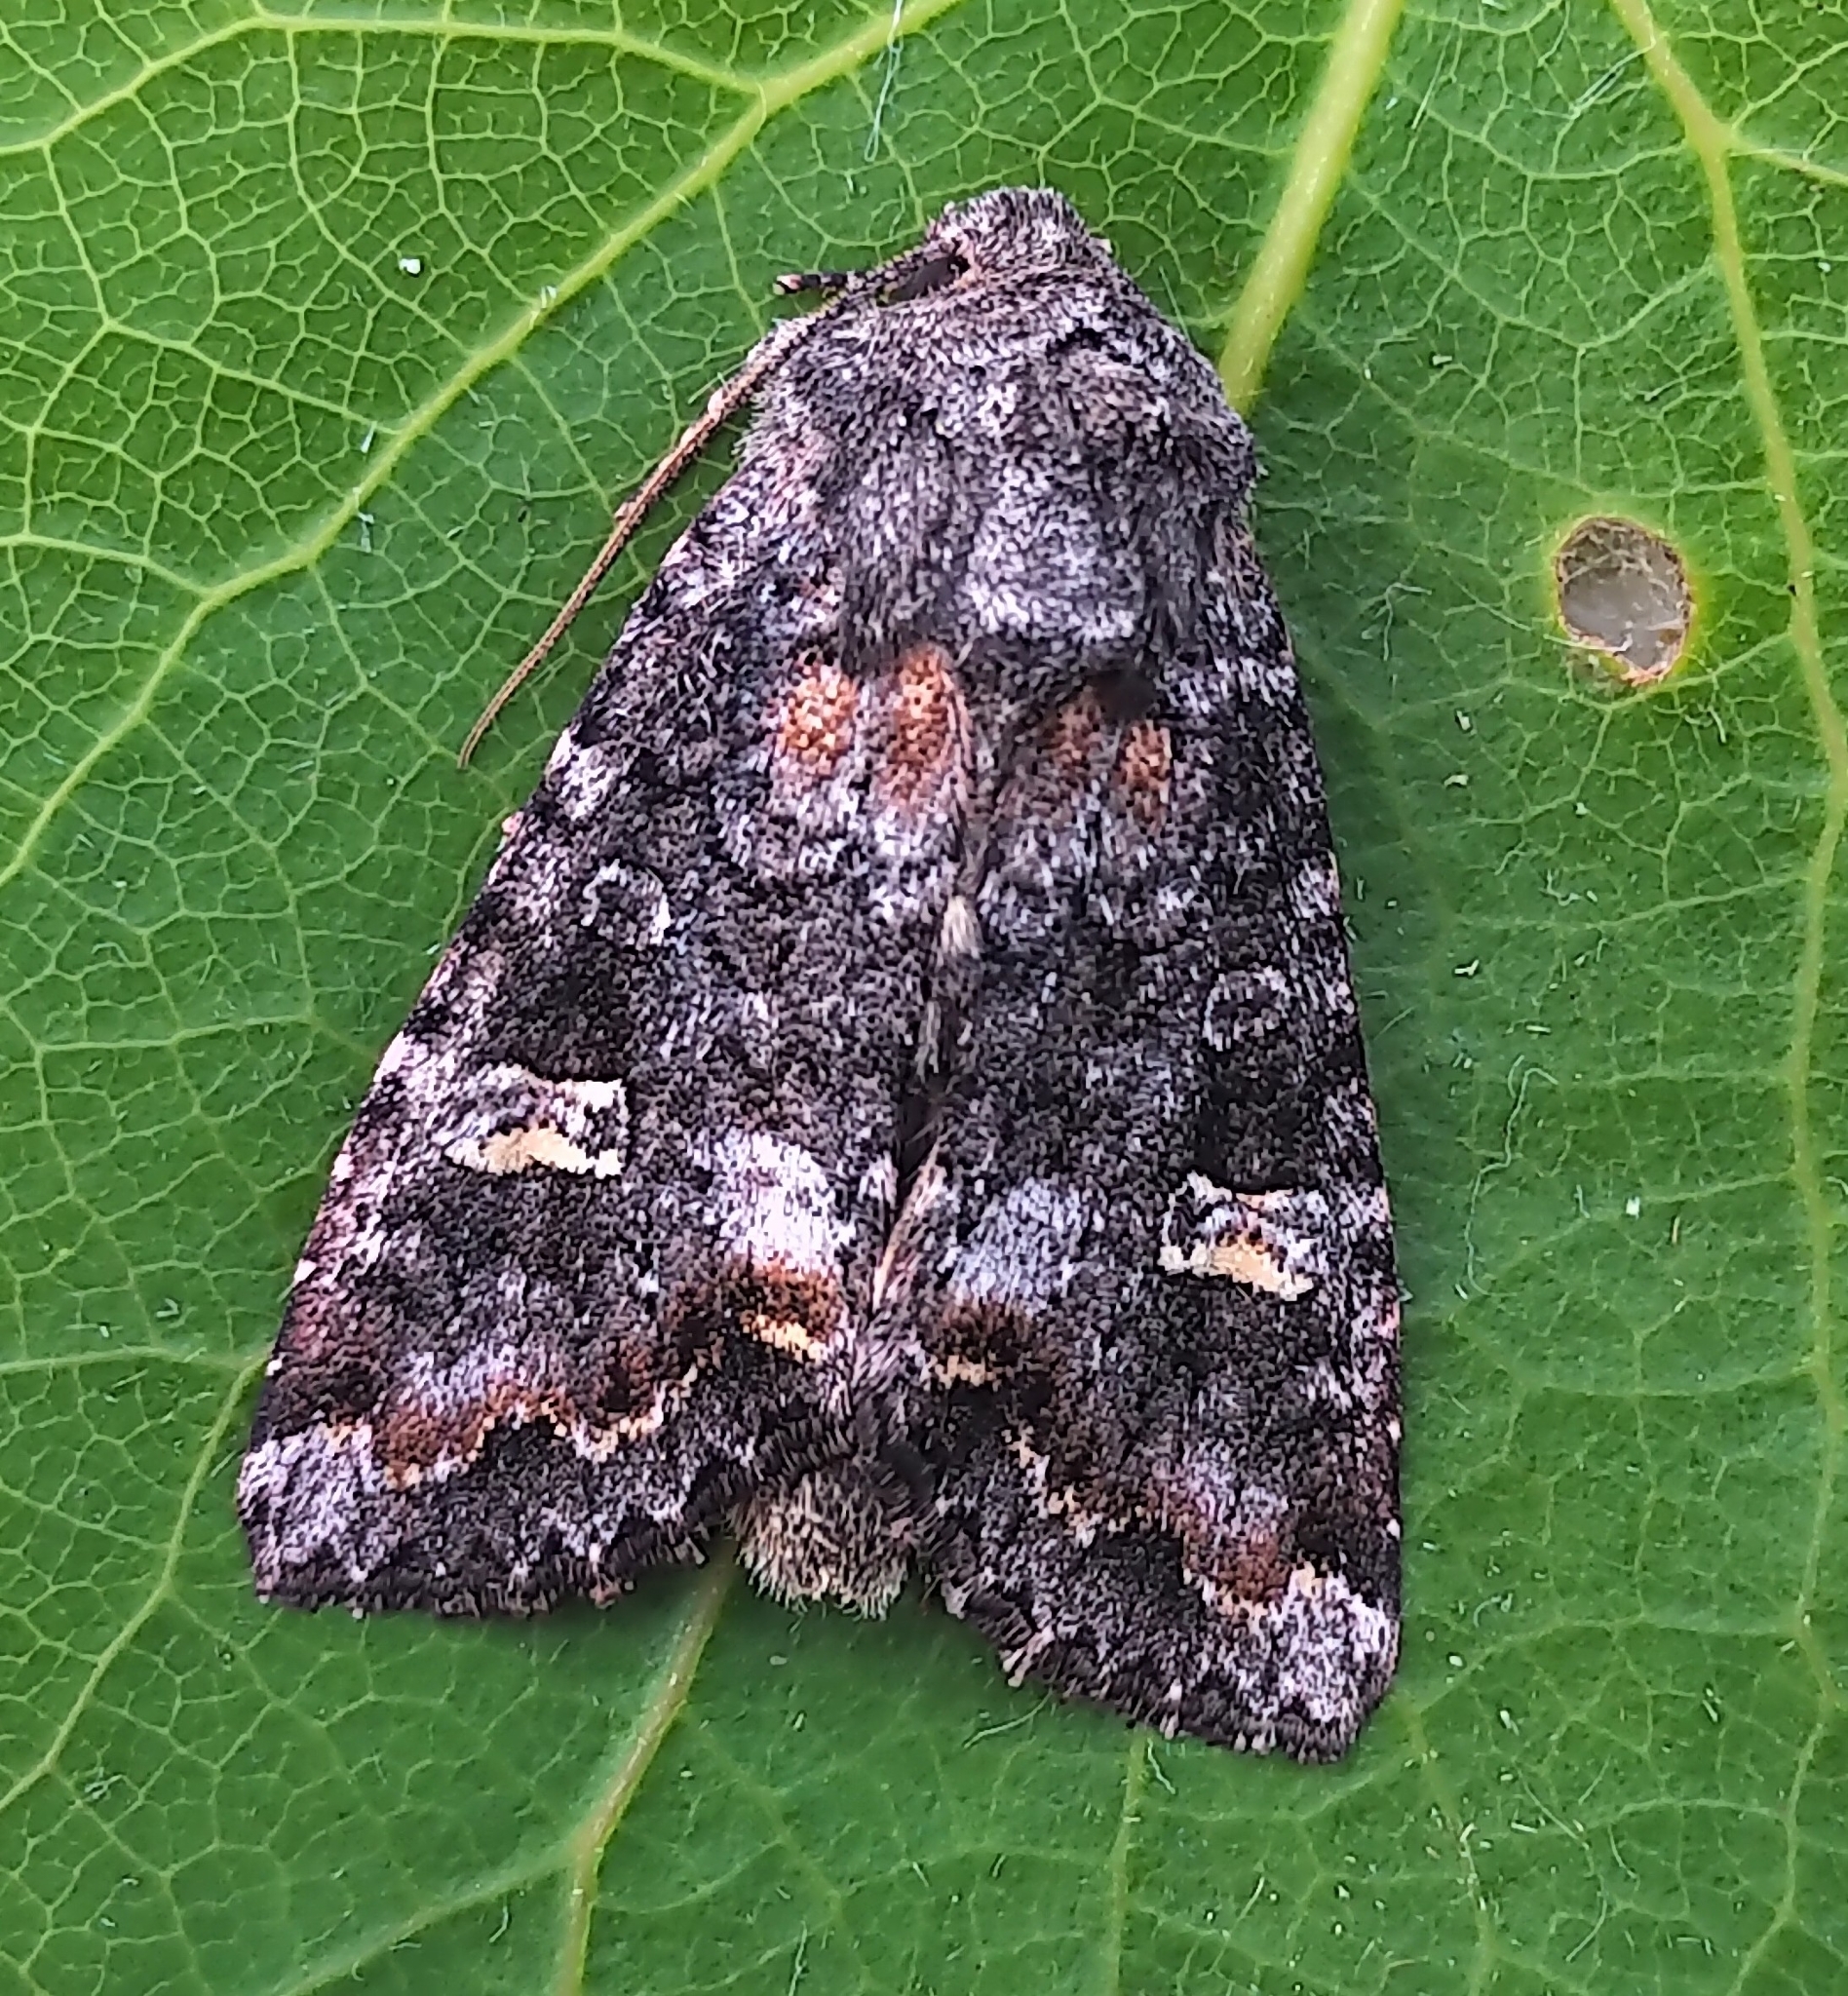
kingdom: Animalia
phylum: Arthropoda
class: Insecta
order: Lepidoptera
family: Noctuidae
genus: Spiramater
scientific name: Spiramater lutra
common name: Otter spiramater moth
